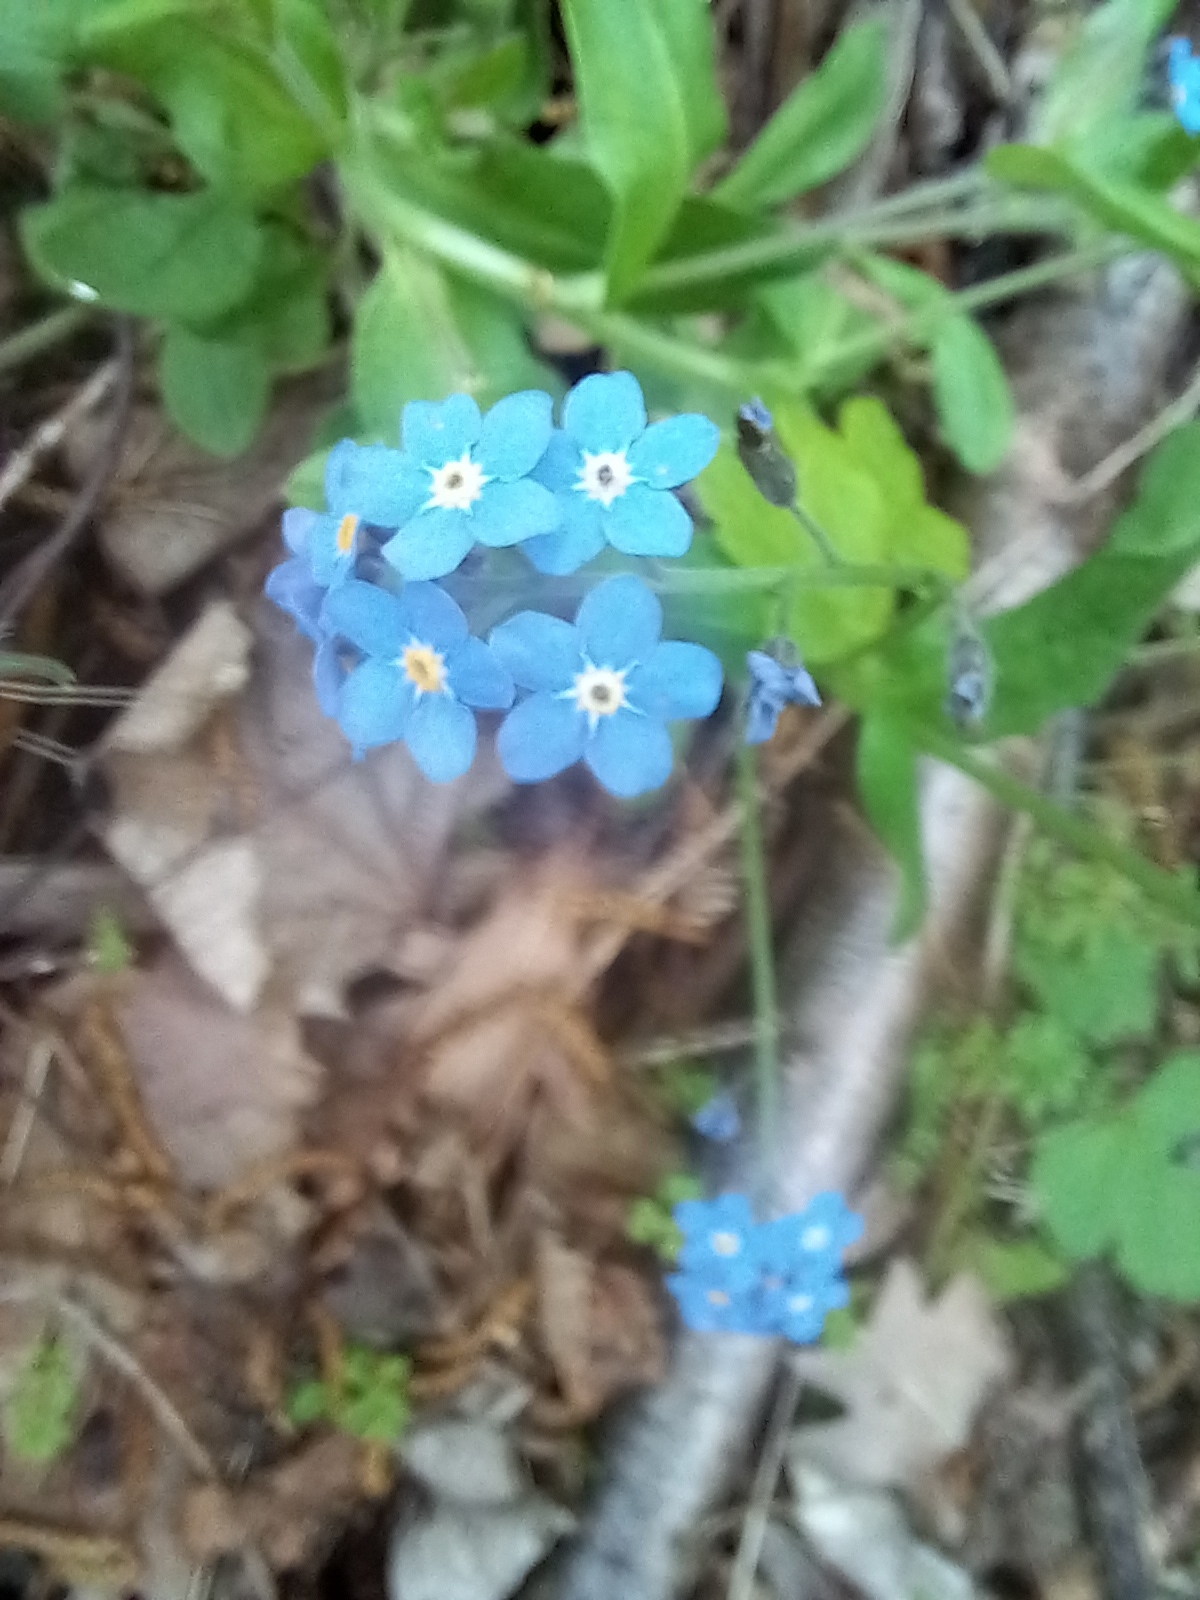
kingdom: Plantae
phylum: Tracheophyta
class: Magnoliopsida
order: Boraginales
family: Boraginaceae
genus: Myosotis
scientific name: Myosotis sylvatica
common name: Wood forget-me-not
